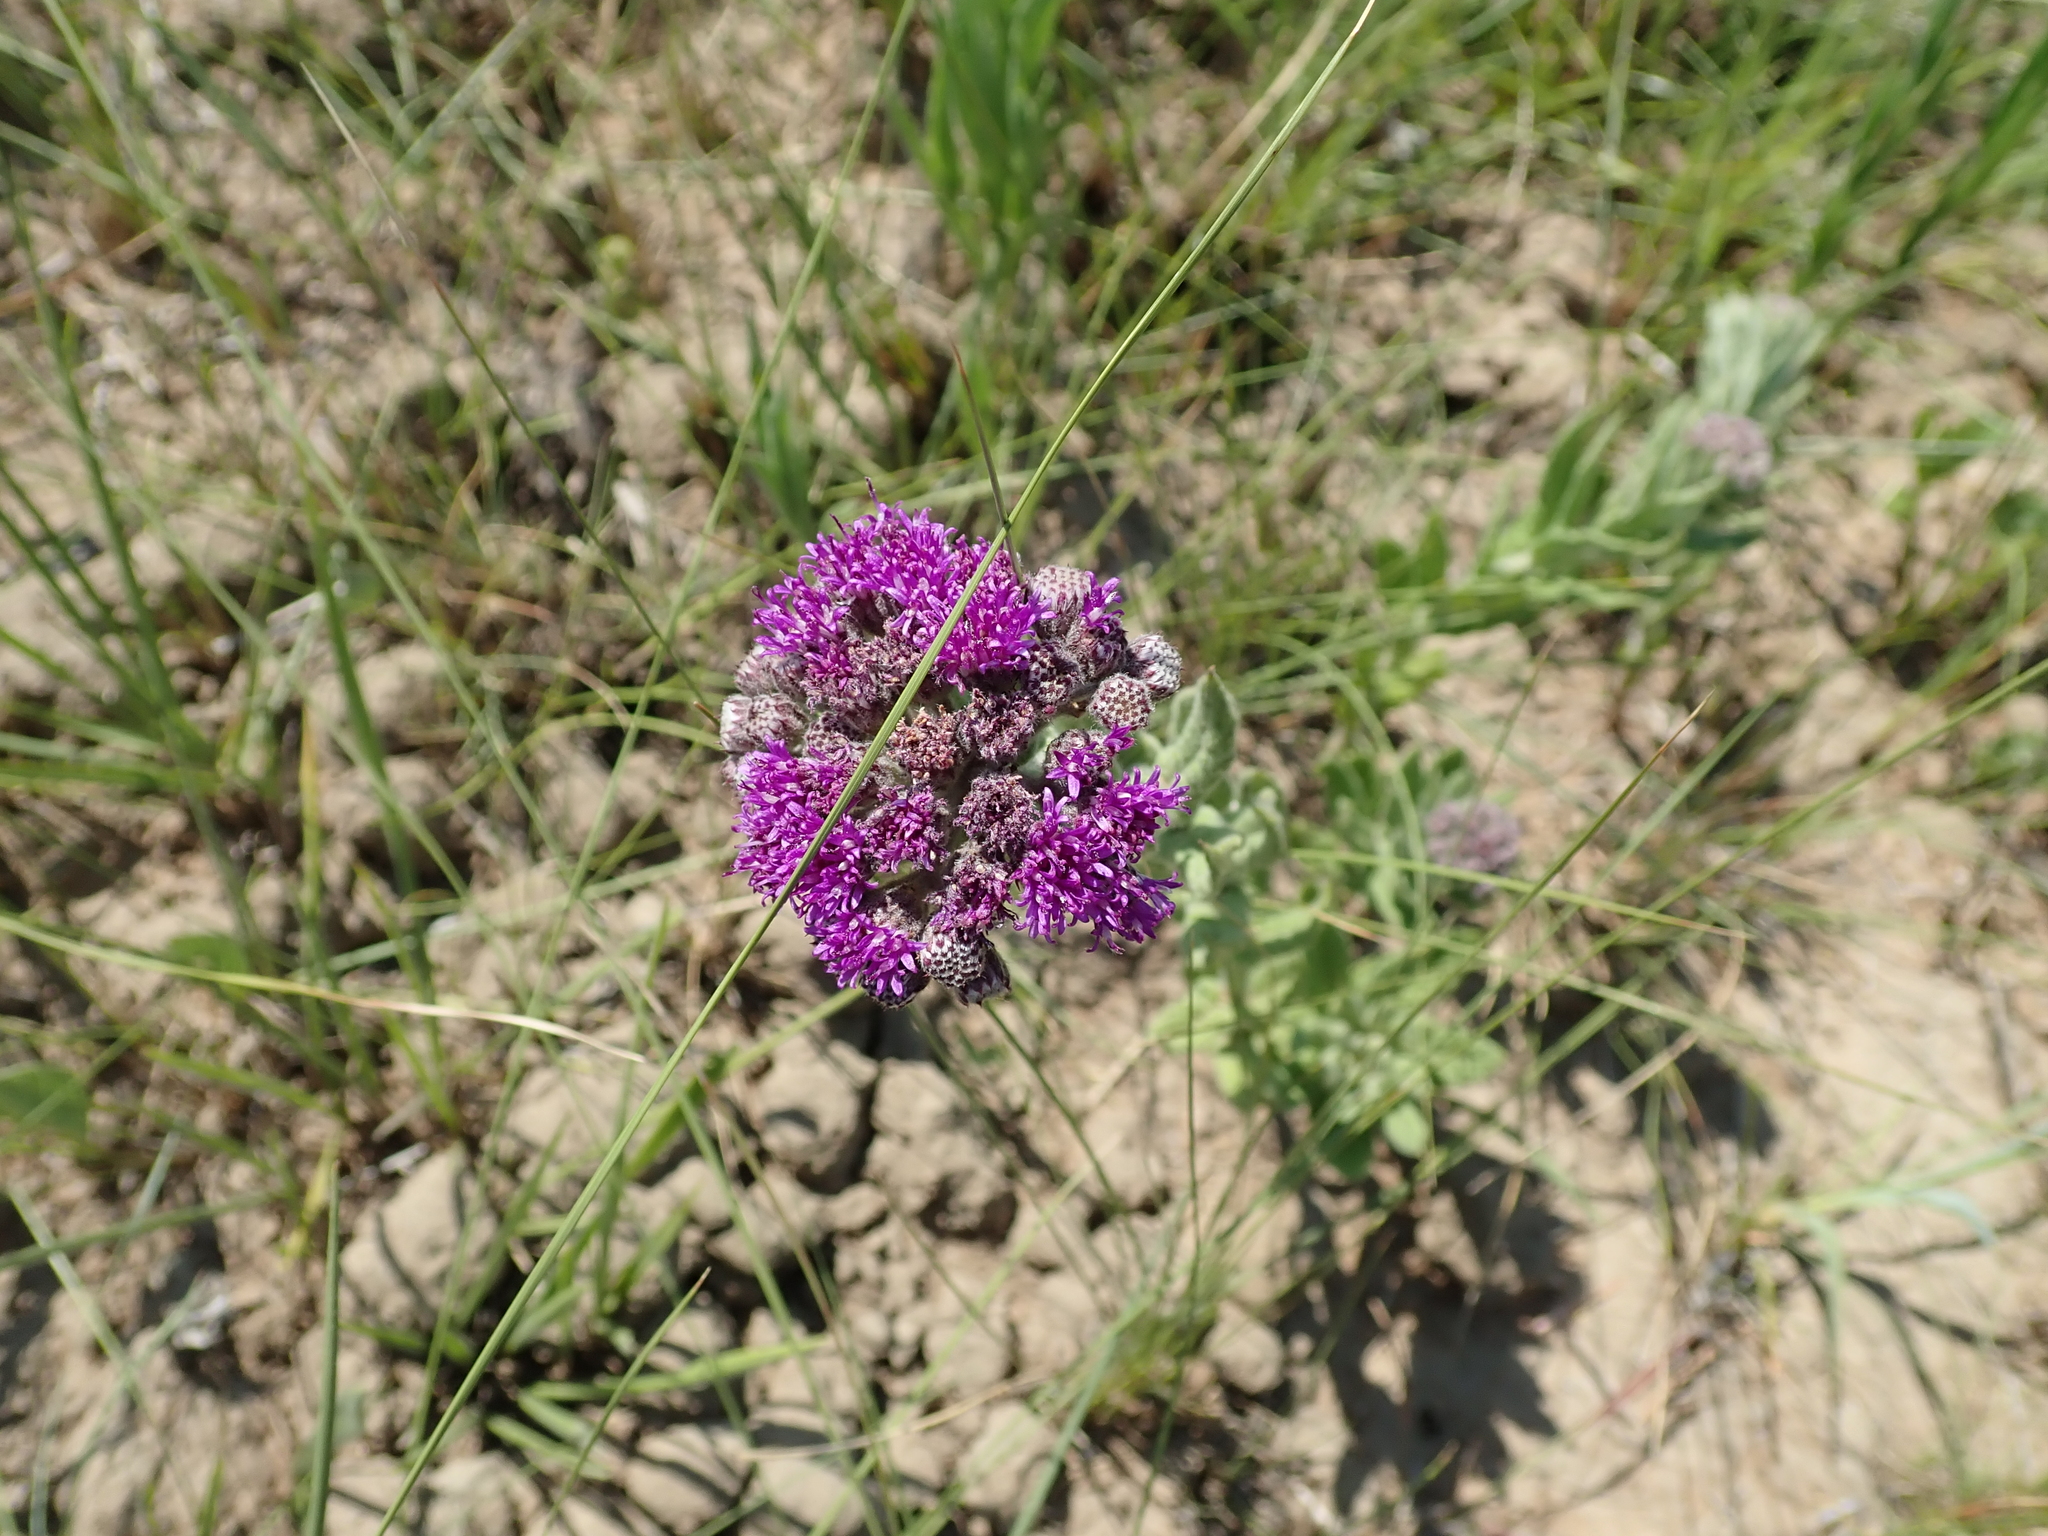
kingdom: Plantae
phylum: Tracheophyta
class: Magnoliopsida
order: Asterales
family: Asteraceae
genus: Hilliardiella
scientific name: Hilliardiella hirsuta
